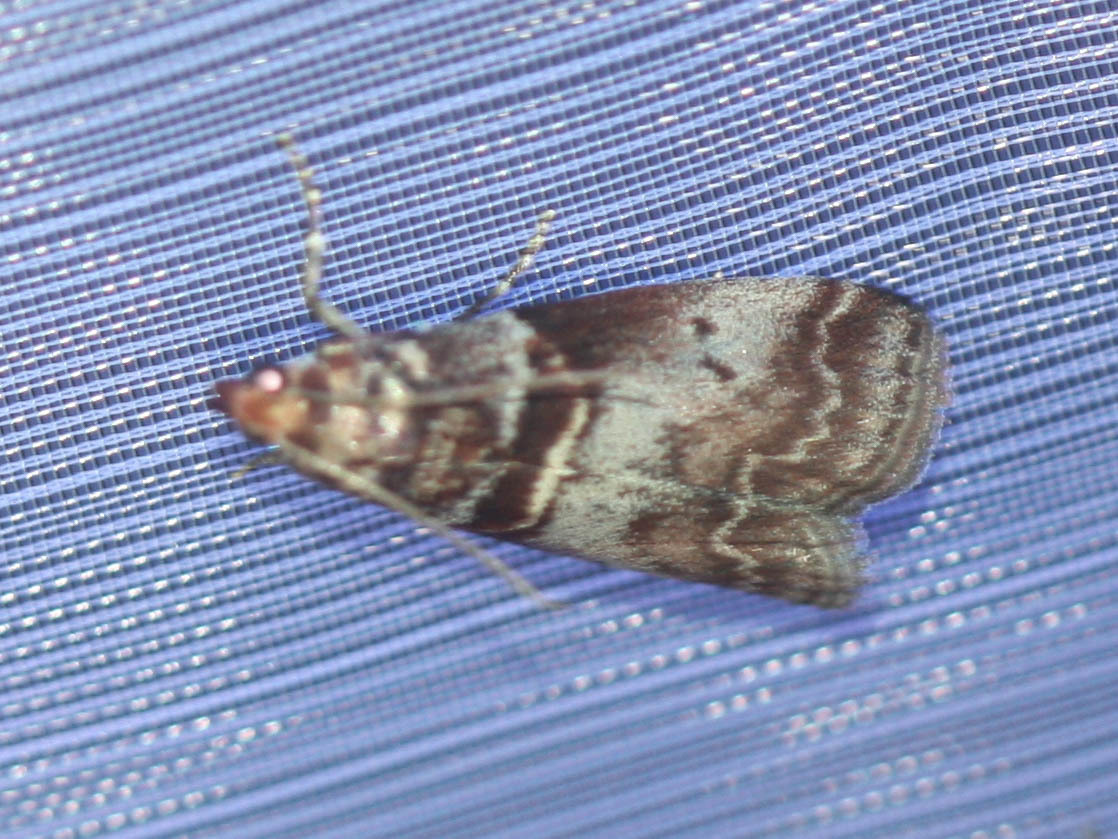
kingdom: Animalia
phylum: Arthropoda
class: Insecta
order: Lepidoptera
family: Pyralidae
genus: Acrobasis
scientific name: Acrobasis advenella
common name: Grey knot-horn
